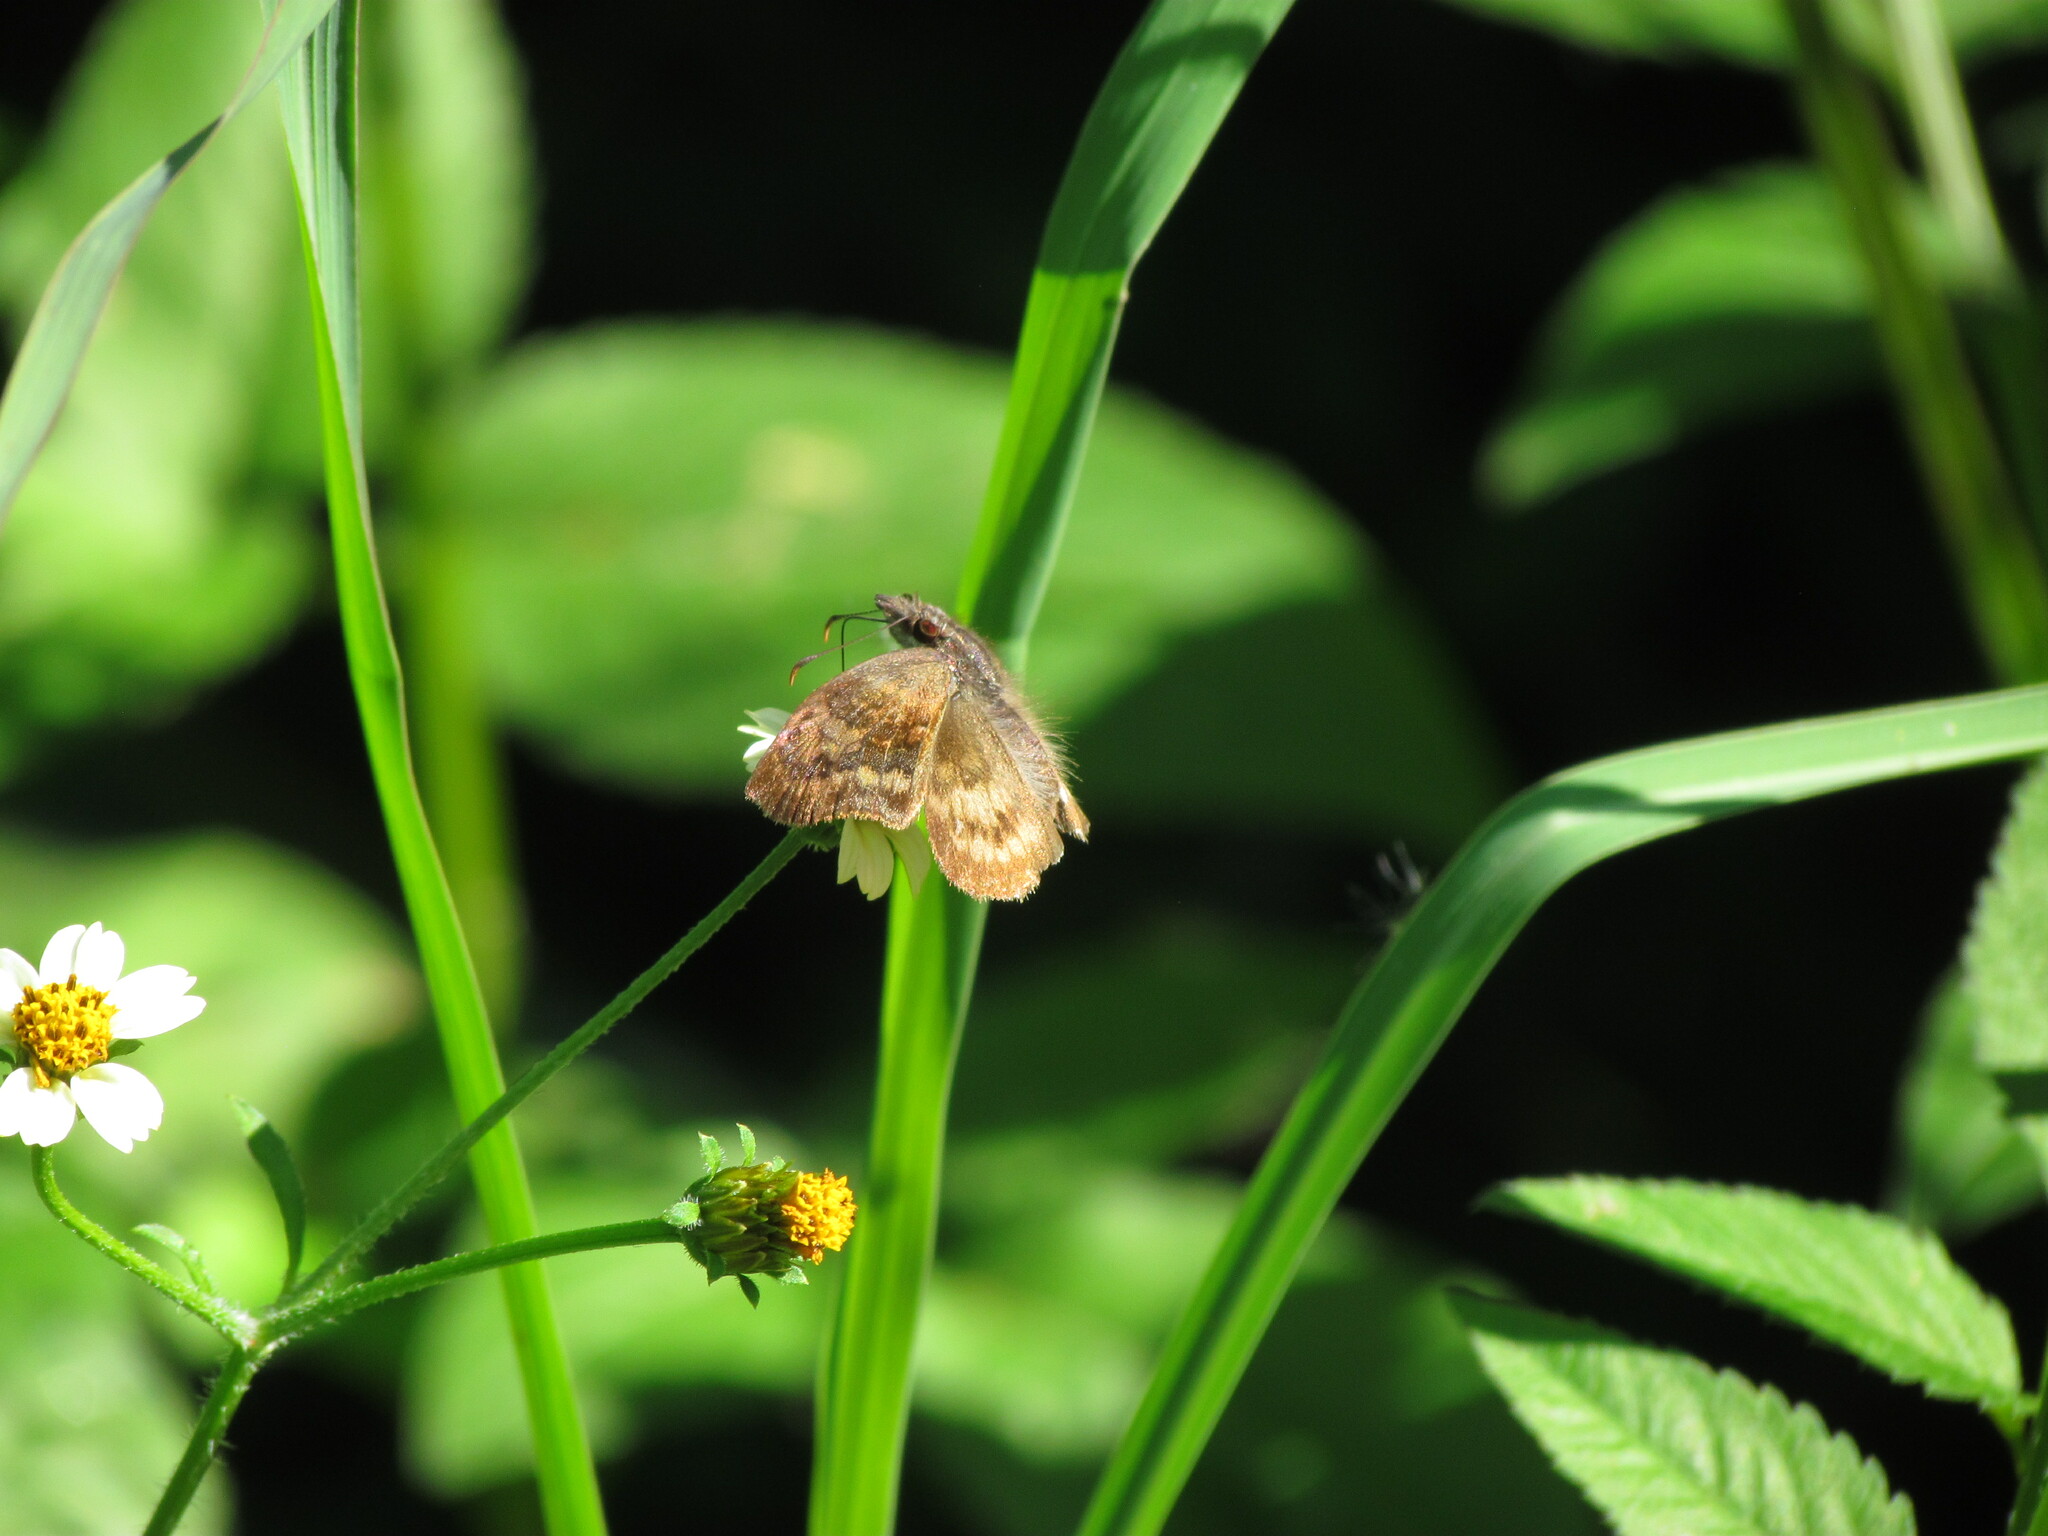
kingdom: Animalia
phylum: Arthropoda
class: Insecta
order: Lepidoptera
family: Hesperiidae
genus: Theagenes
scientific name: Theagenes dichrous
